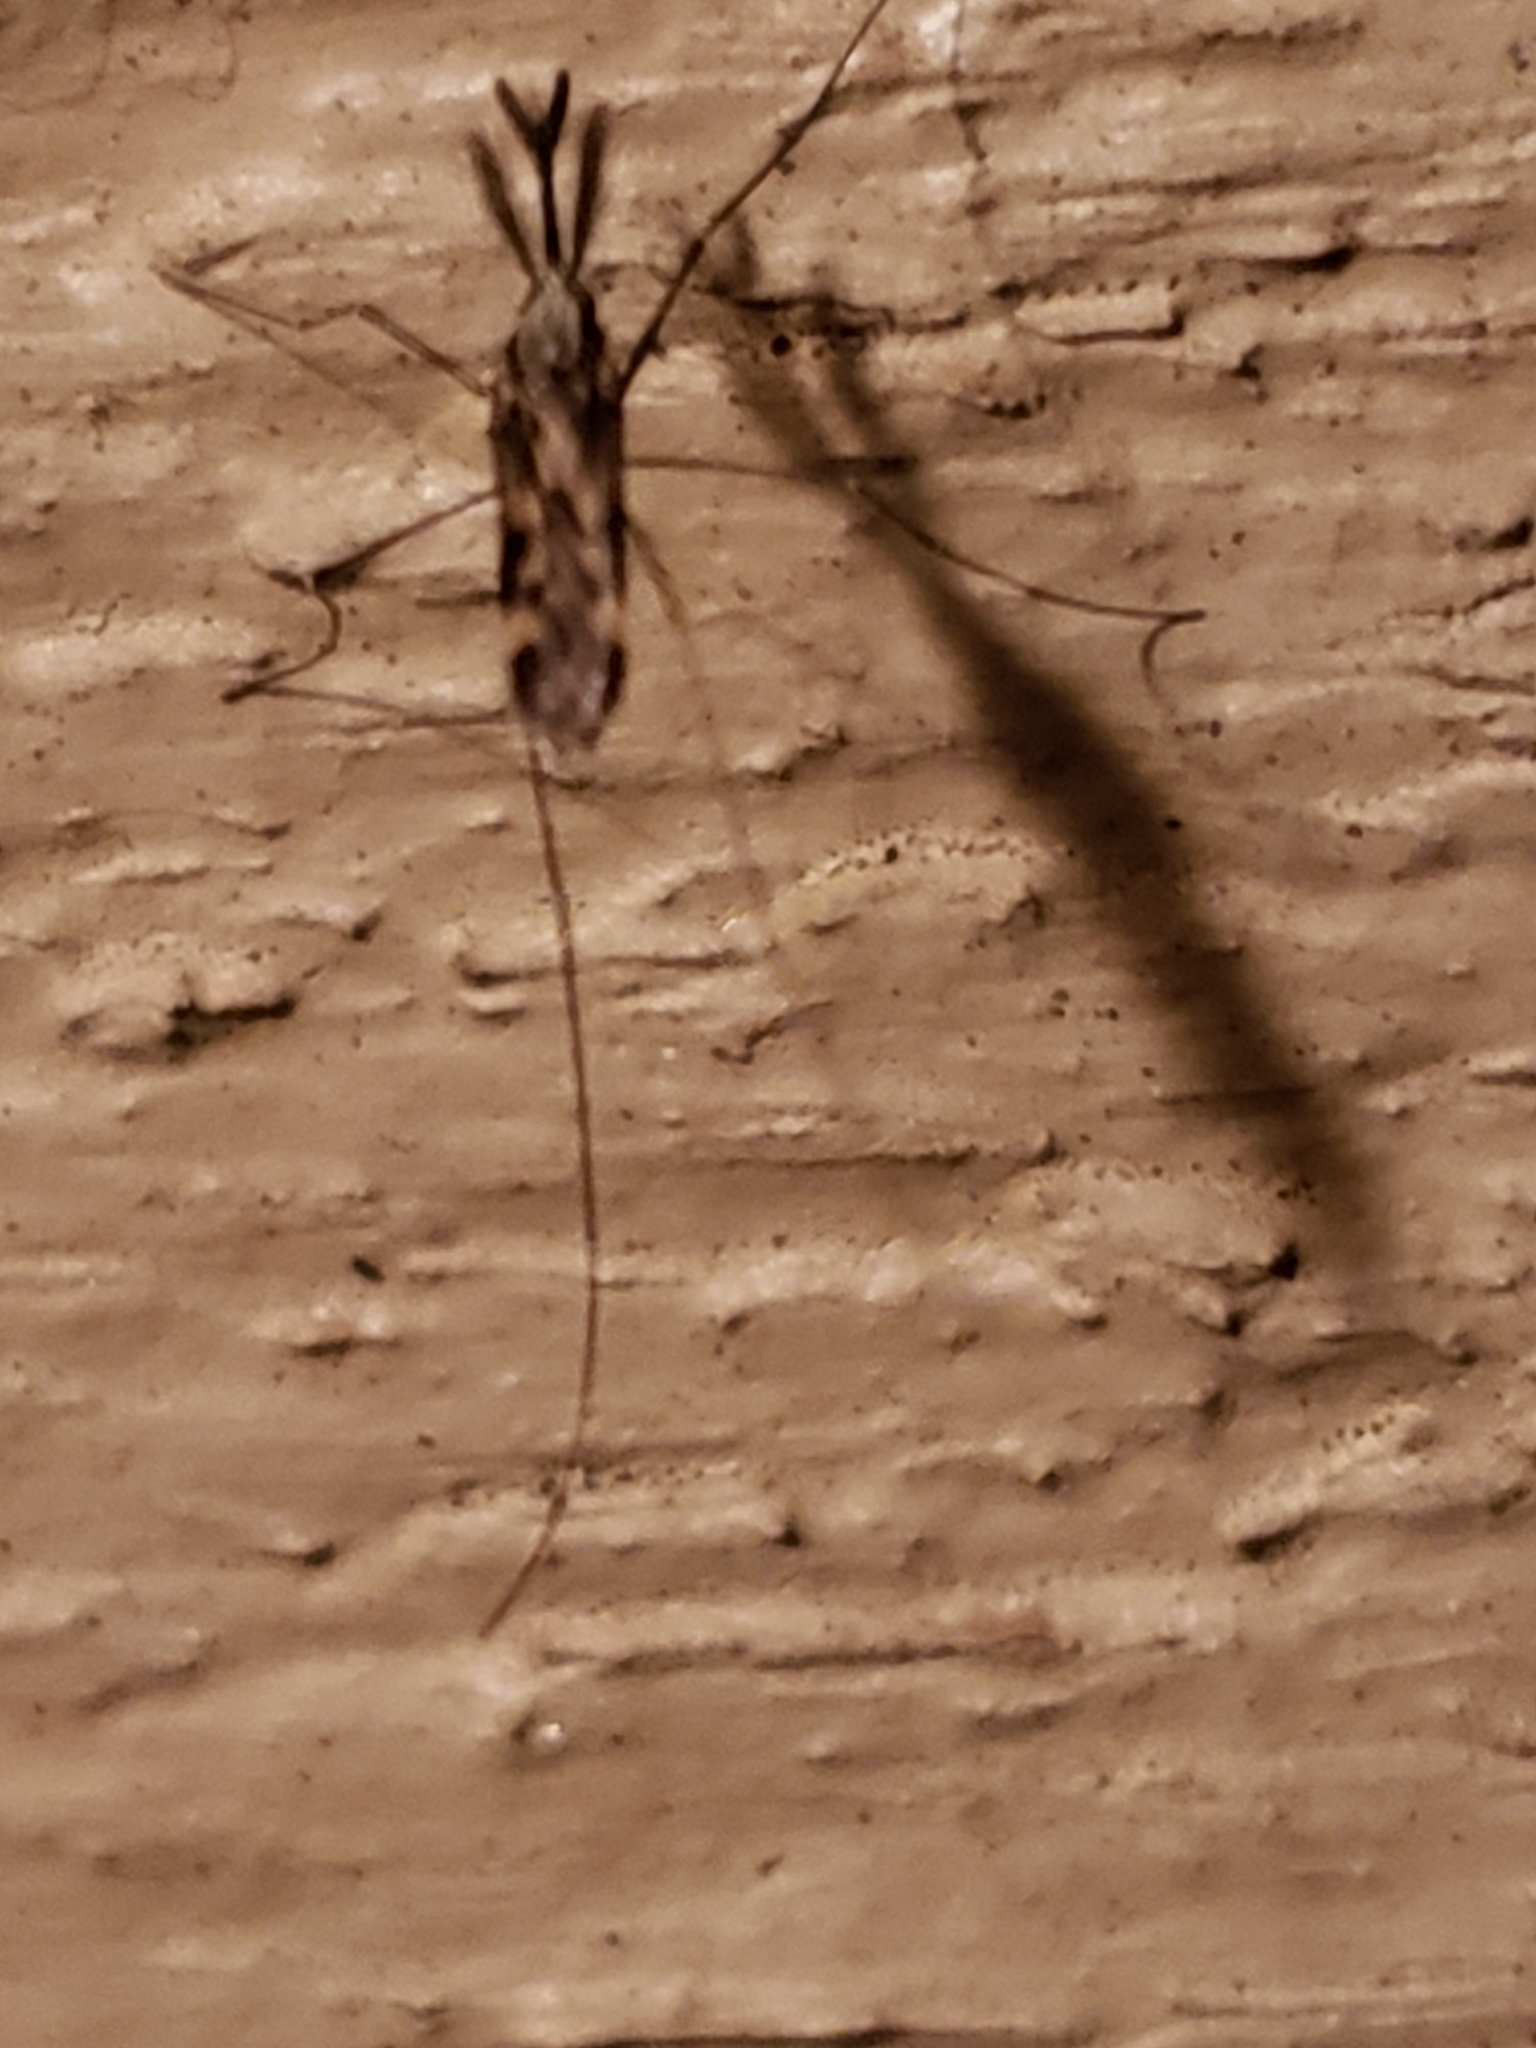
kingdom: Animalia
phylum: Arthropoda
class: Insecta
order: Diptera
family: Culicidae
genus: Anopheles
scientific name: Anopheles punctipennis
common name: Woodland malaria mosquito
